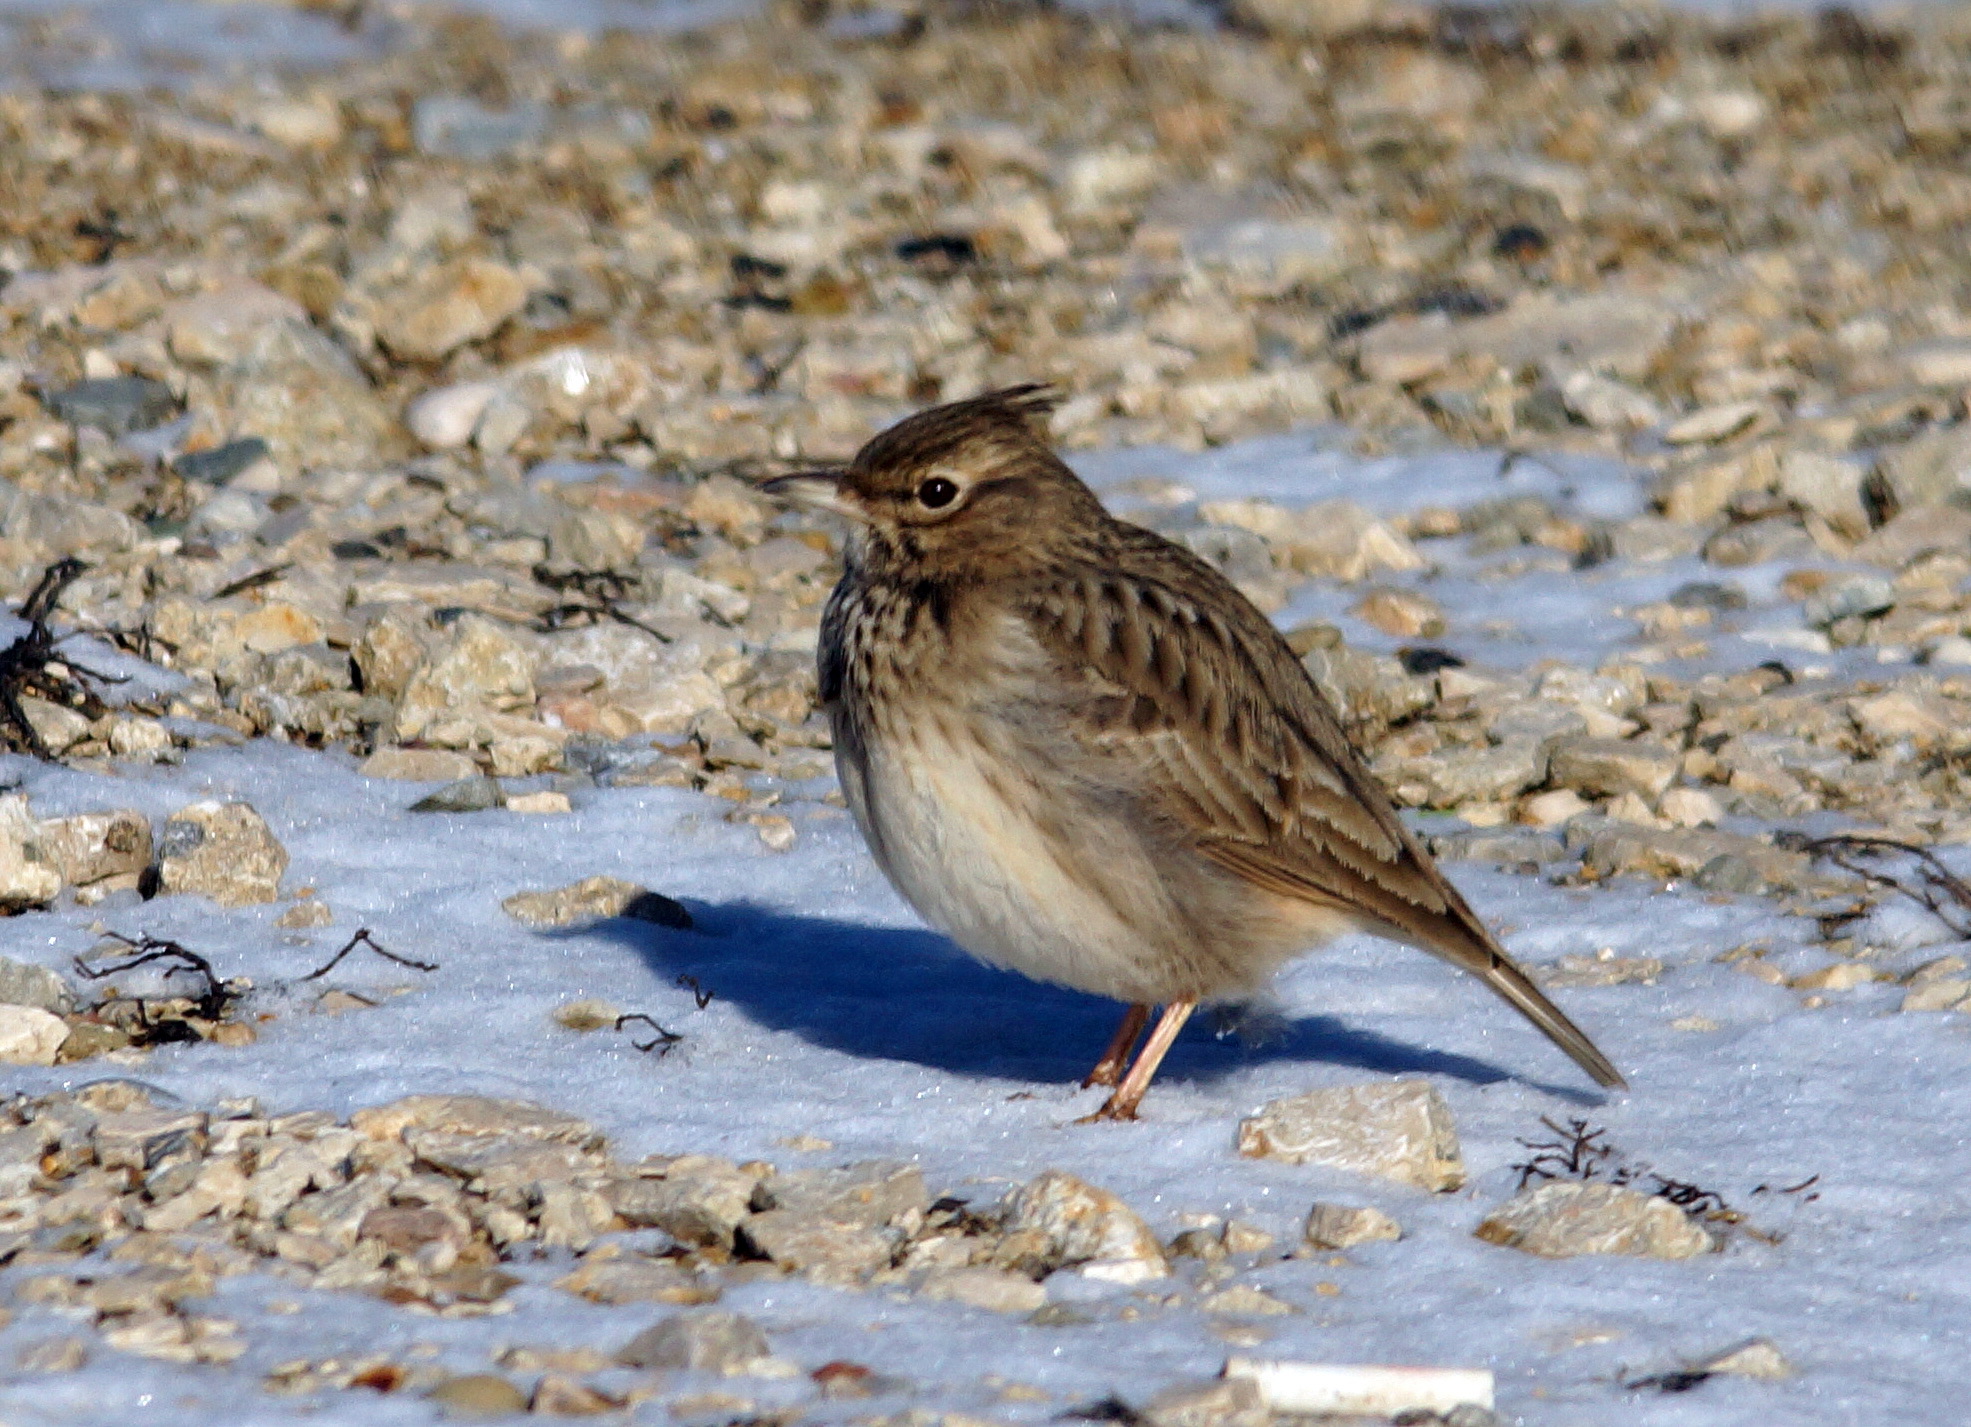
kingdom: Animalia
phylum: Chordata
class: Aves
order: Passeriformes
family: Alaudidae
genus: Galerida
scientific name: Galerida cristata
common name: Crested lark
